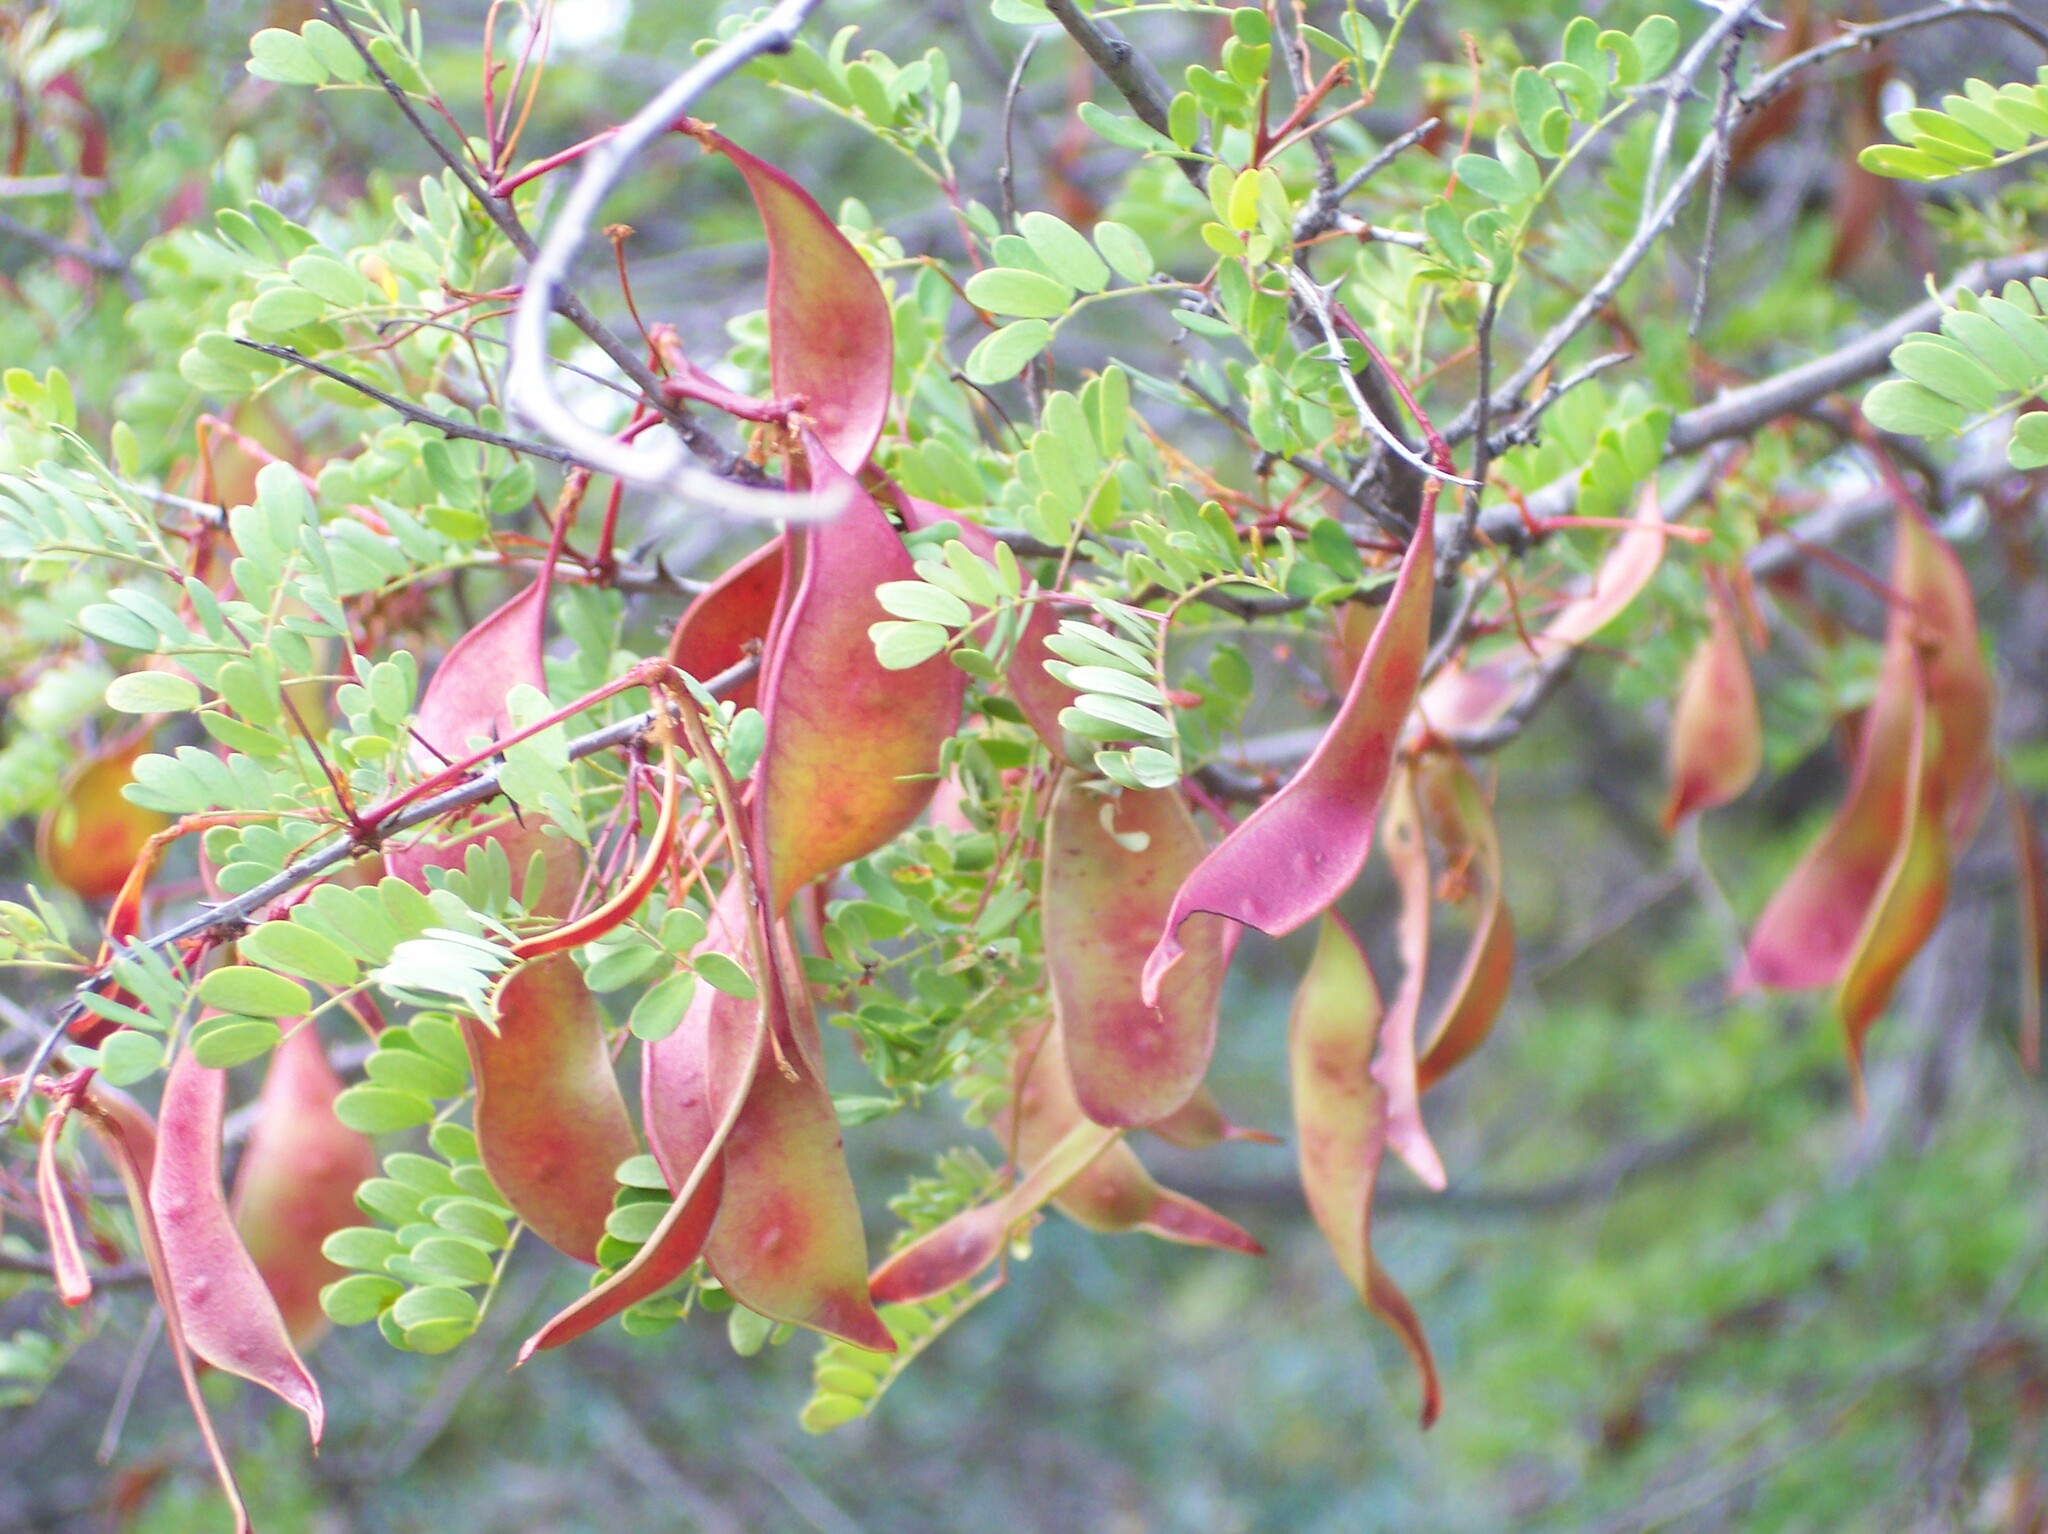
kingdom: Plantae
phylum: Tracheophyta
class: Magnoliopsida
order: Fabales
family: Fabaceae
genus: Senegalia
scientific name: Senegalia roemeriana
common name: Roemer's acacia
